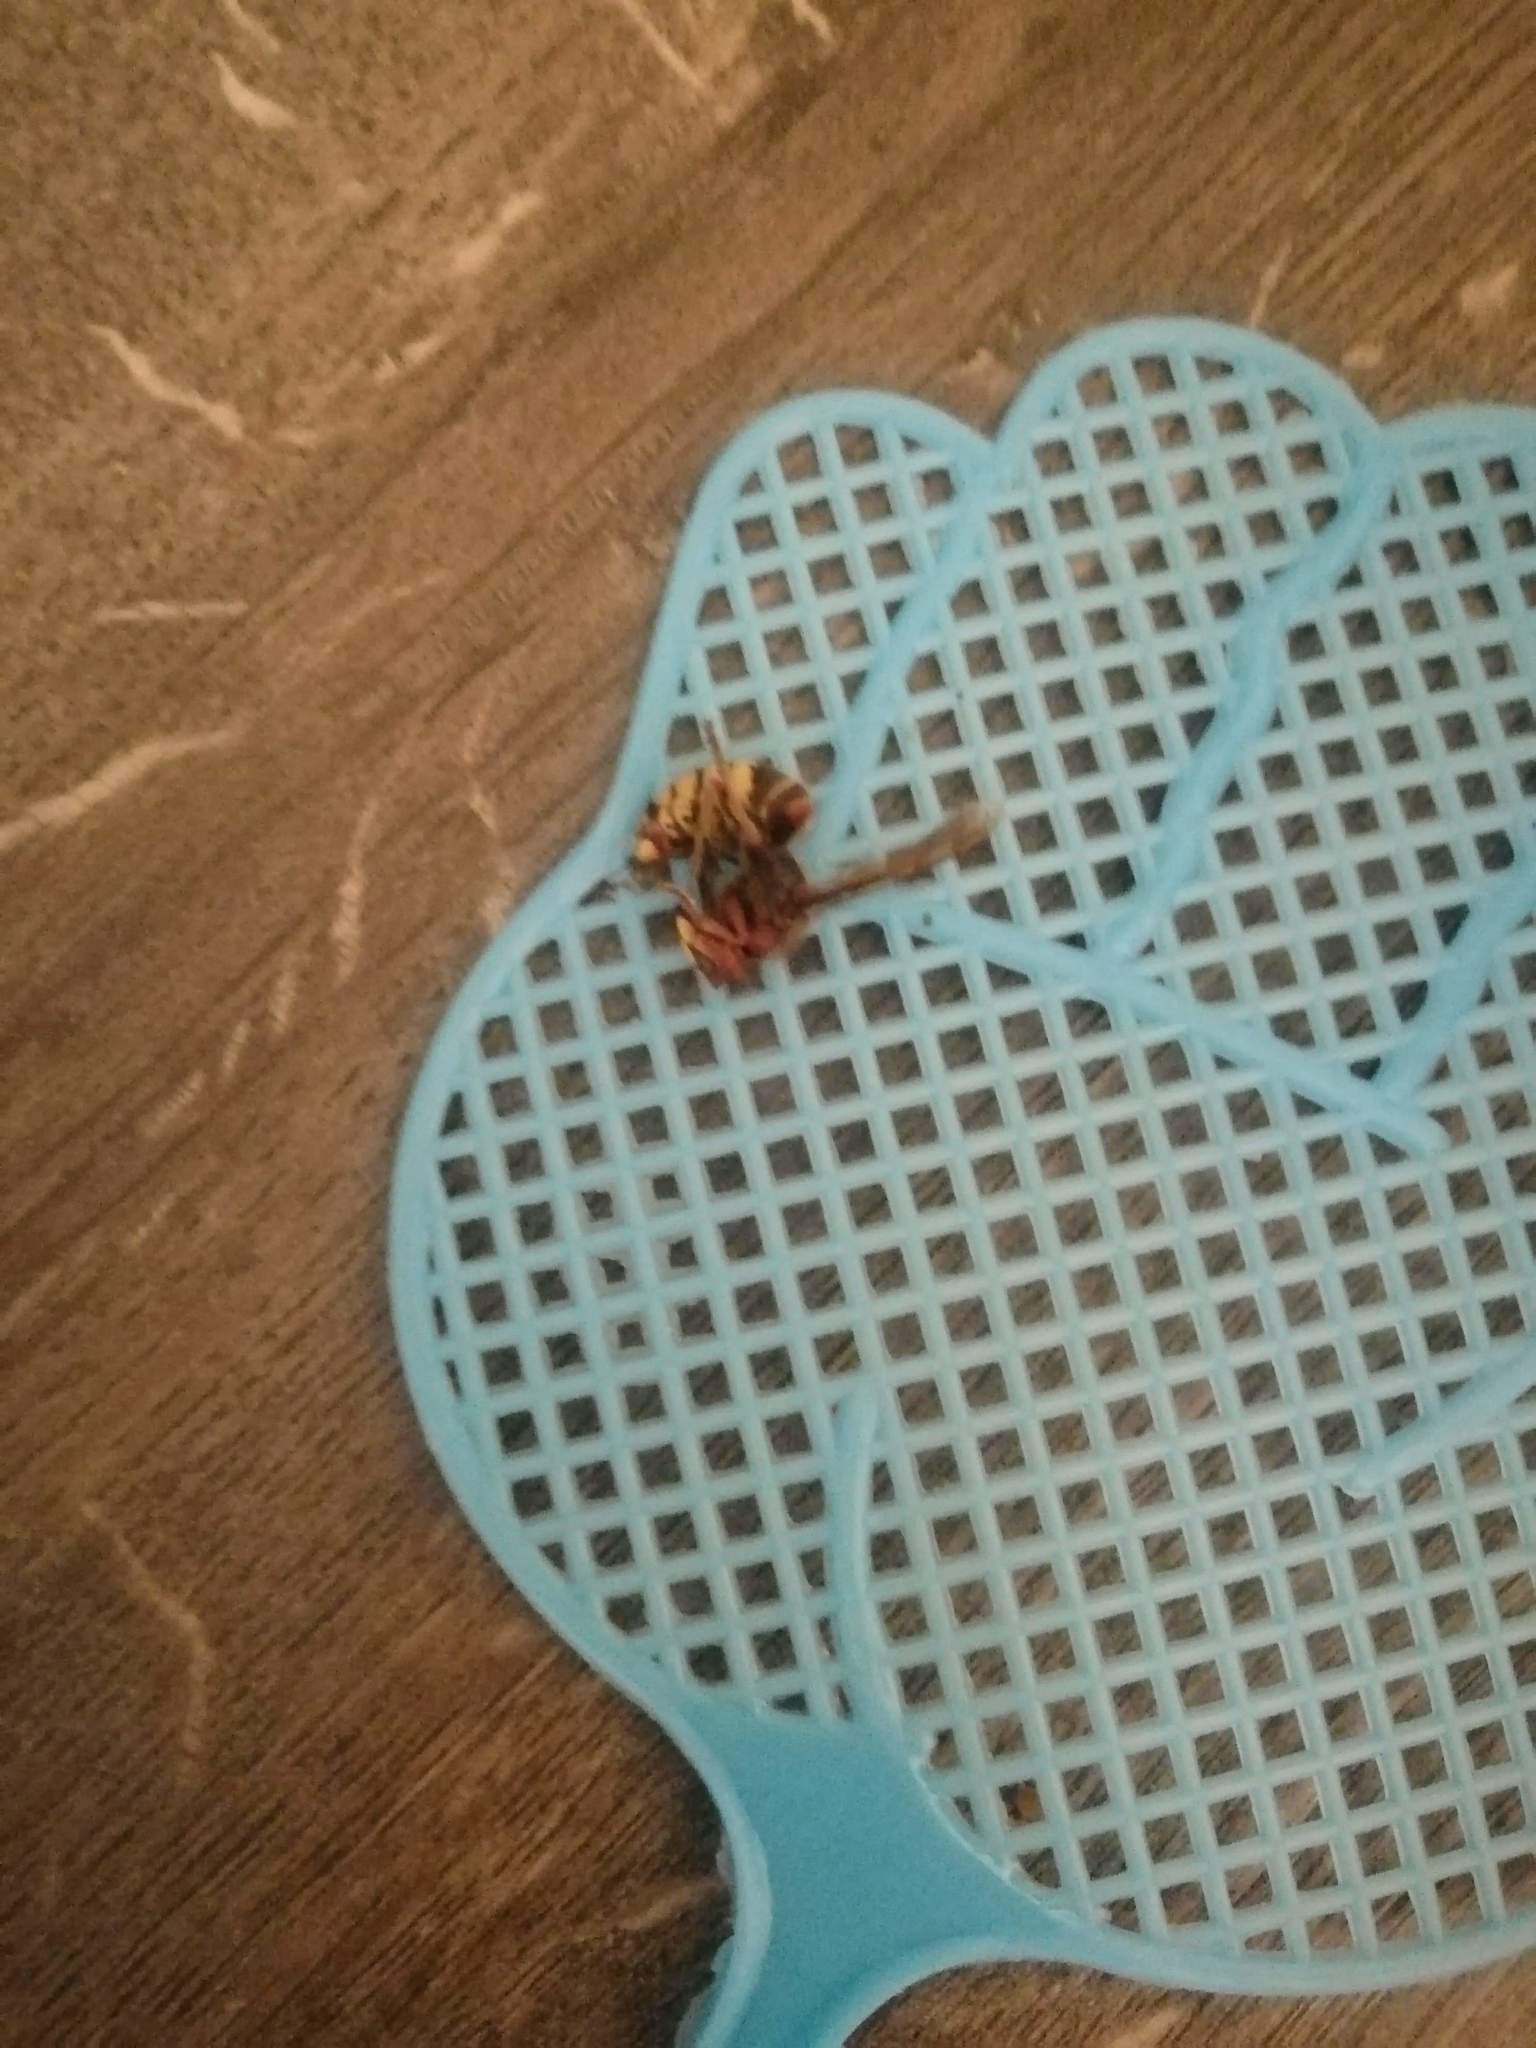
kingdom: Animalia
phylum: Arthropoda
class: Insecta
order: Hymenoptera
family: Vespidae
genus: Vespa
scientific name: Vespa crabro
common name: Hornet
